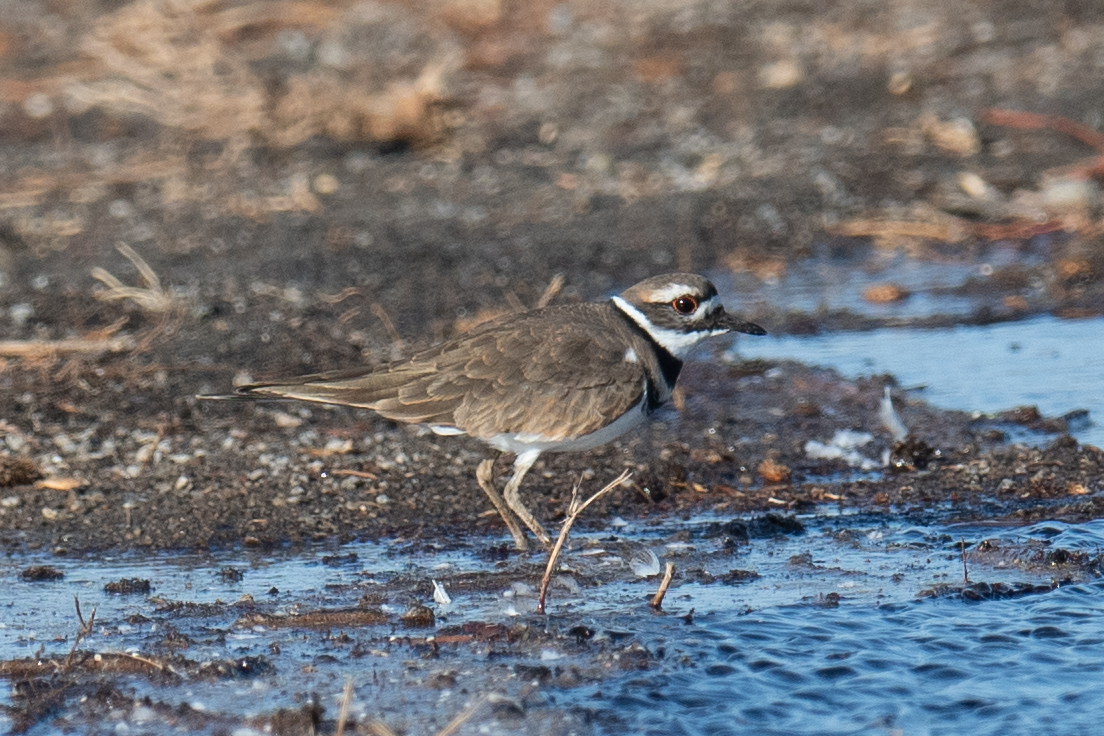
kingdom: Animalia
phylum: Chordata
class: Aves
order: Charadriiformes
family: Charadriidae
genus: Charadrius
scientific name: Charadrius vociferus
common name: Killdeer
